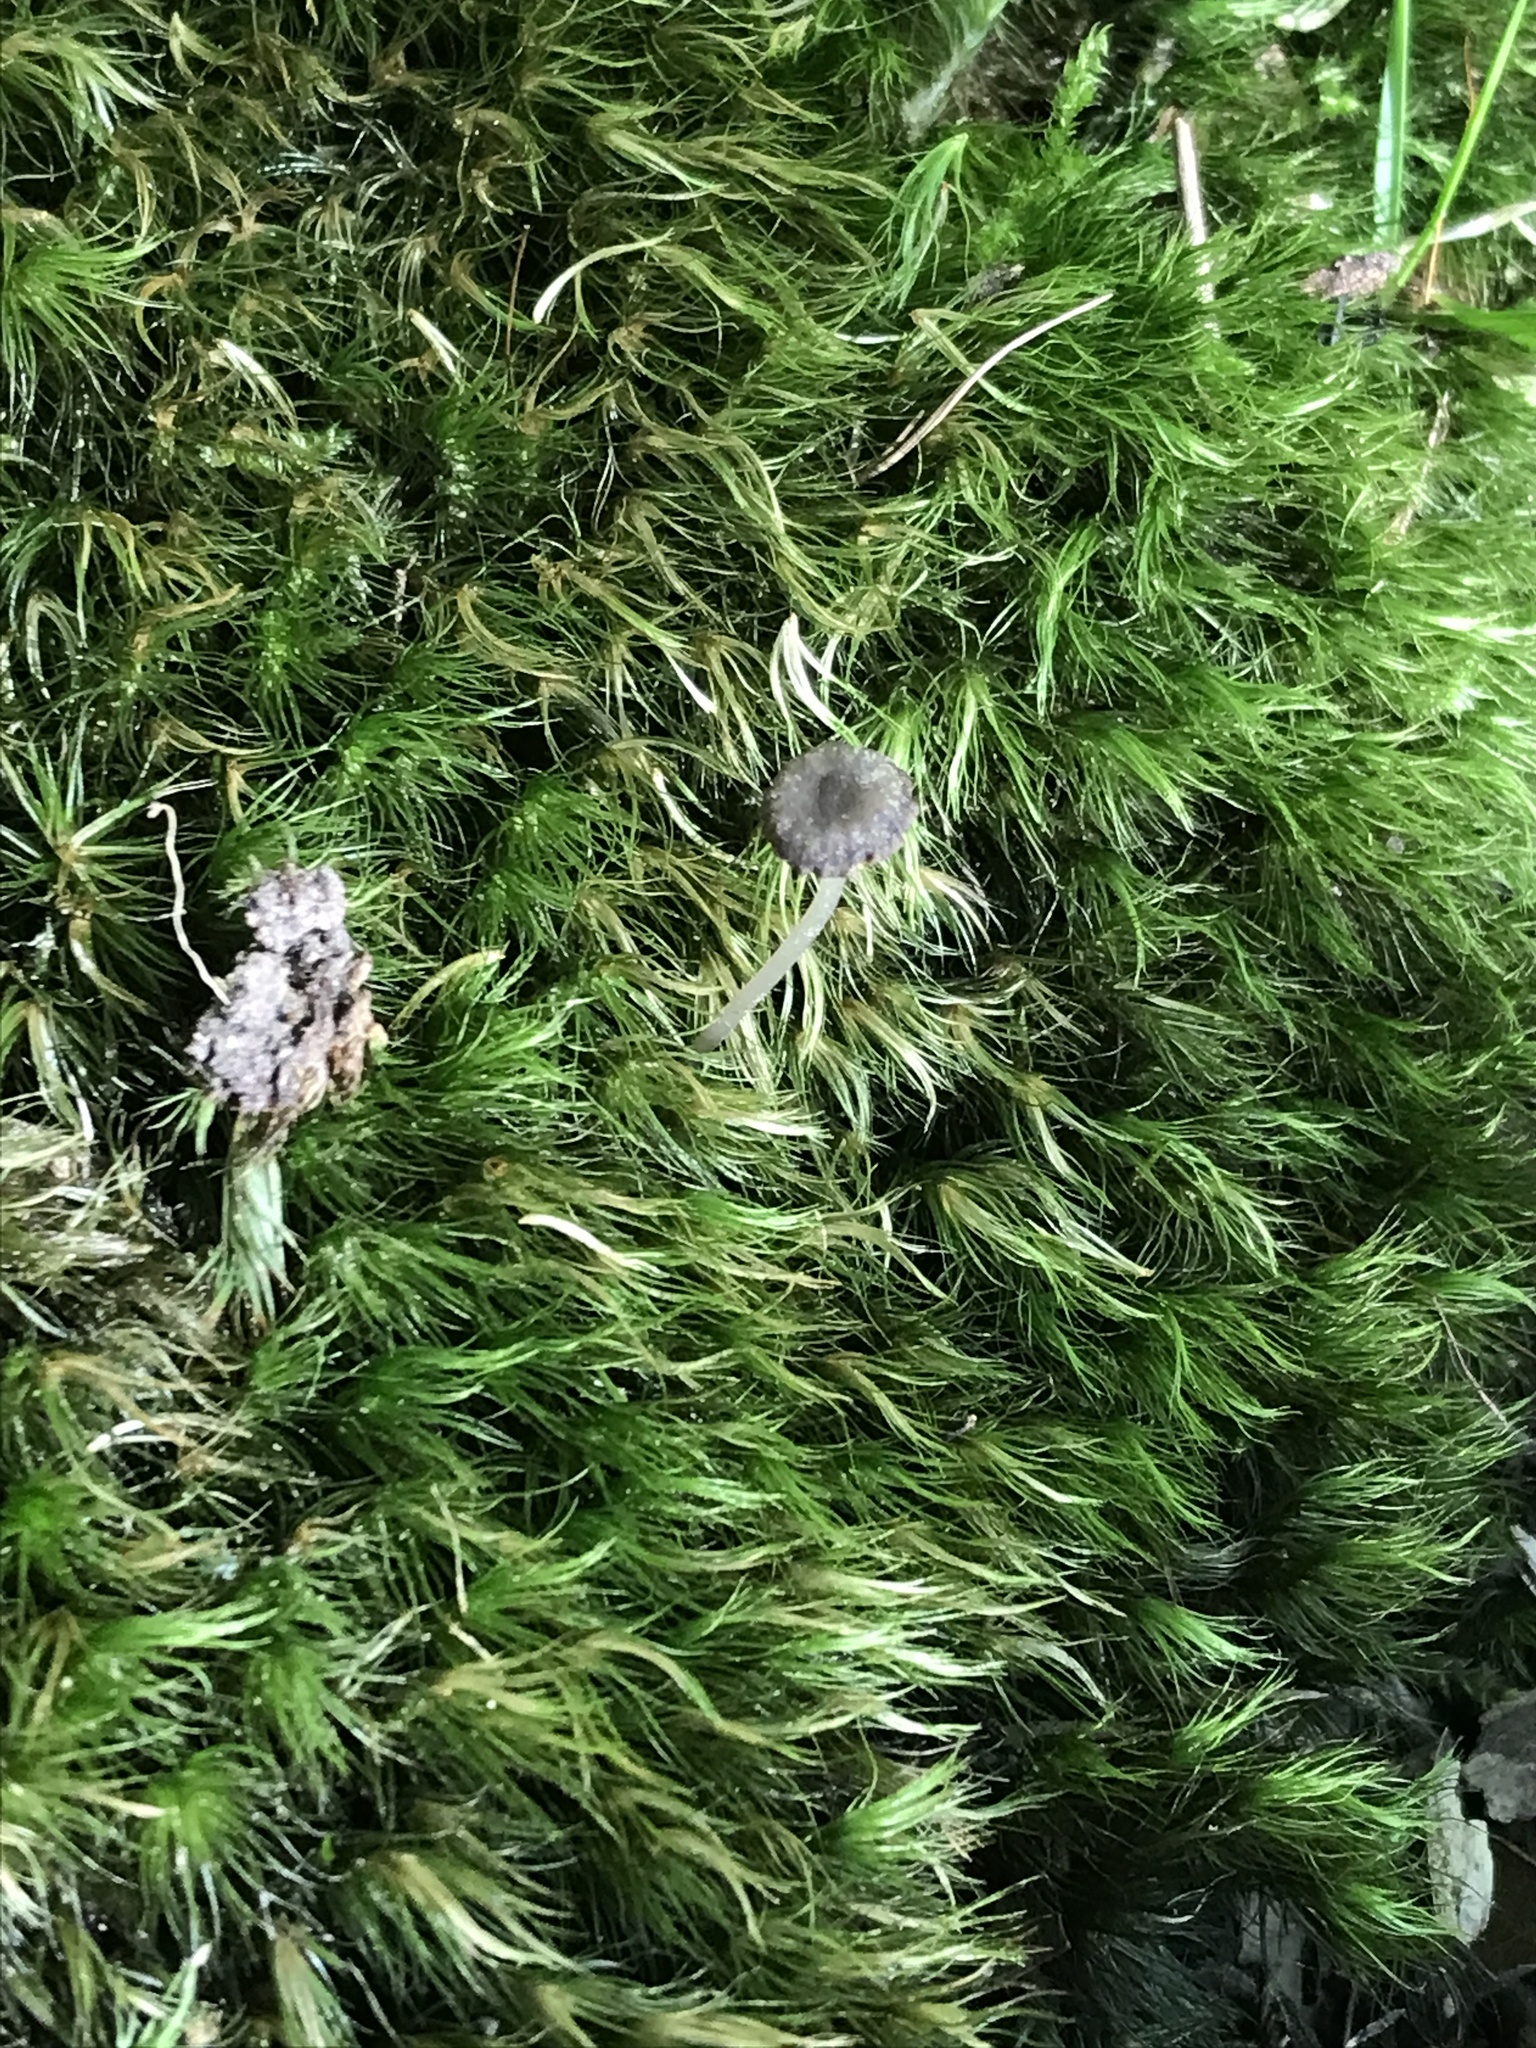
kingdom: Fungi
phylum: Basidiomycota
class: Agaricomycetes
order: Agaricales
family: Mycenaceae
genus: Hydropus
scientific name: Hydropus praedecurrens
